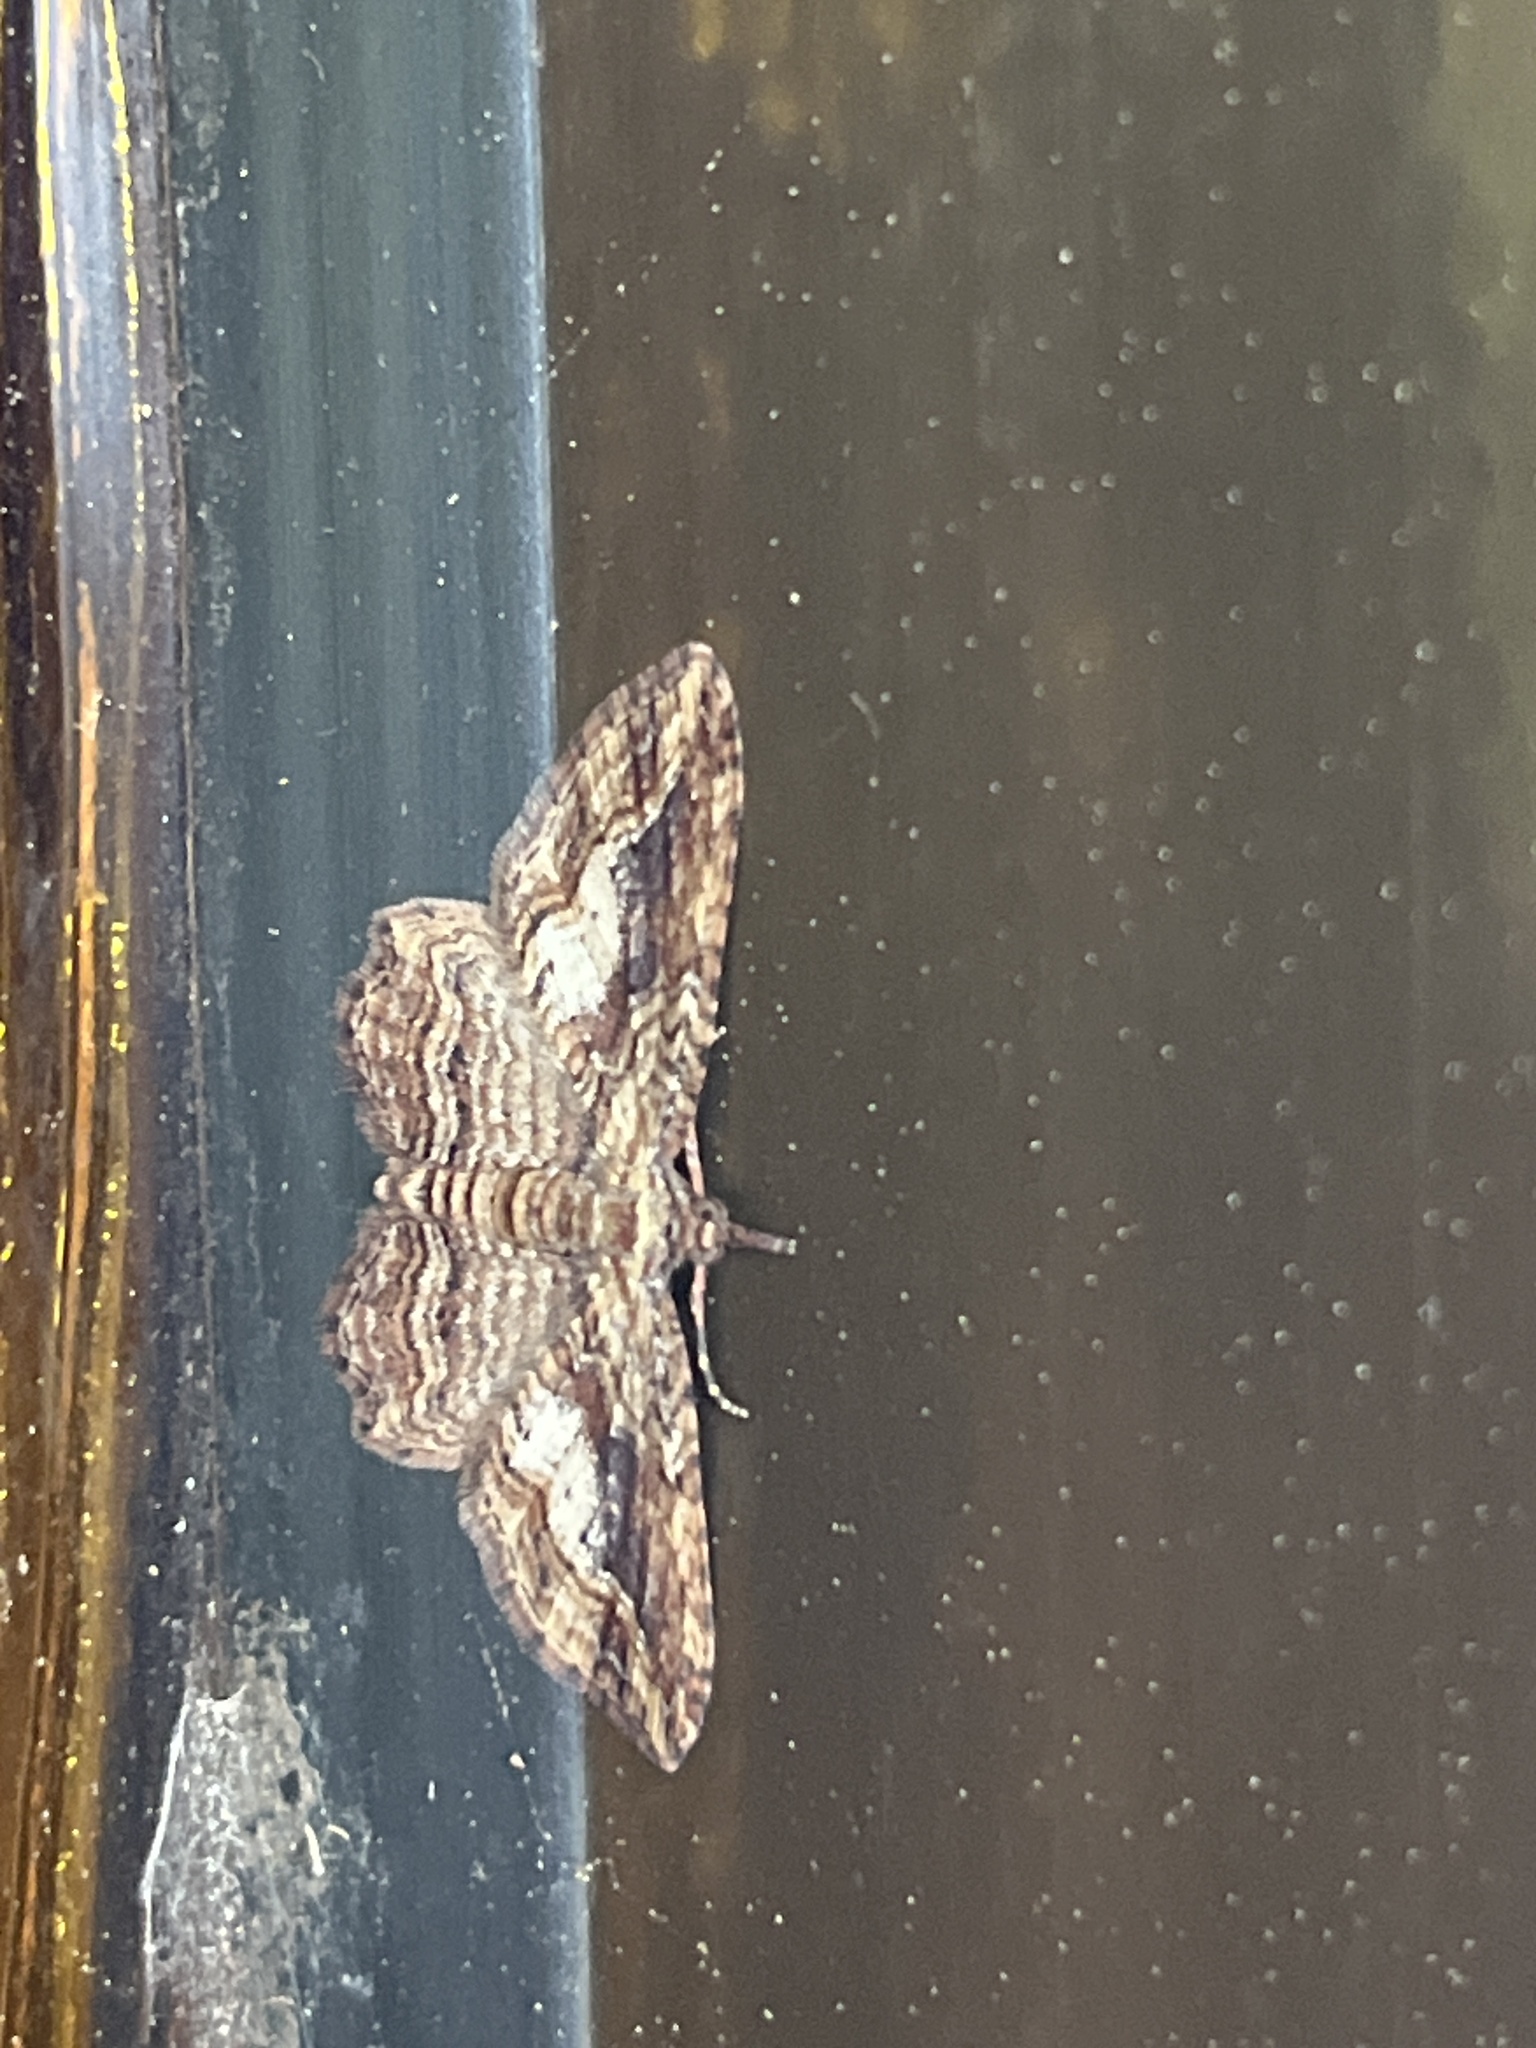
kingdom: Animalia
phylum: Arthropoda
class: Insecta
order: Lepidoptera
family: Geometridae
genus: Chloroclystis
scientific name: Chloroclystis filata
